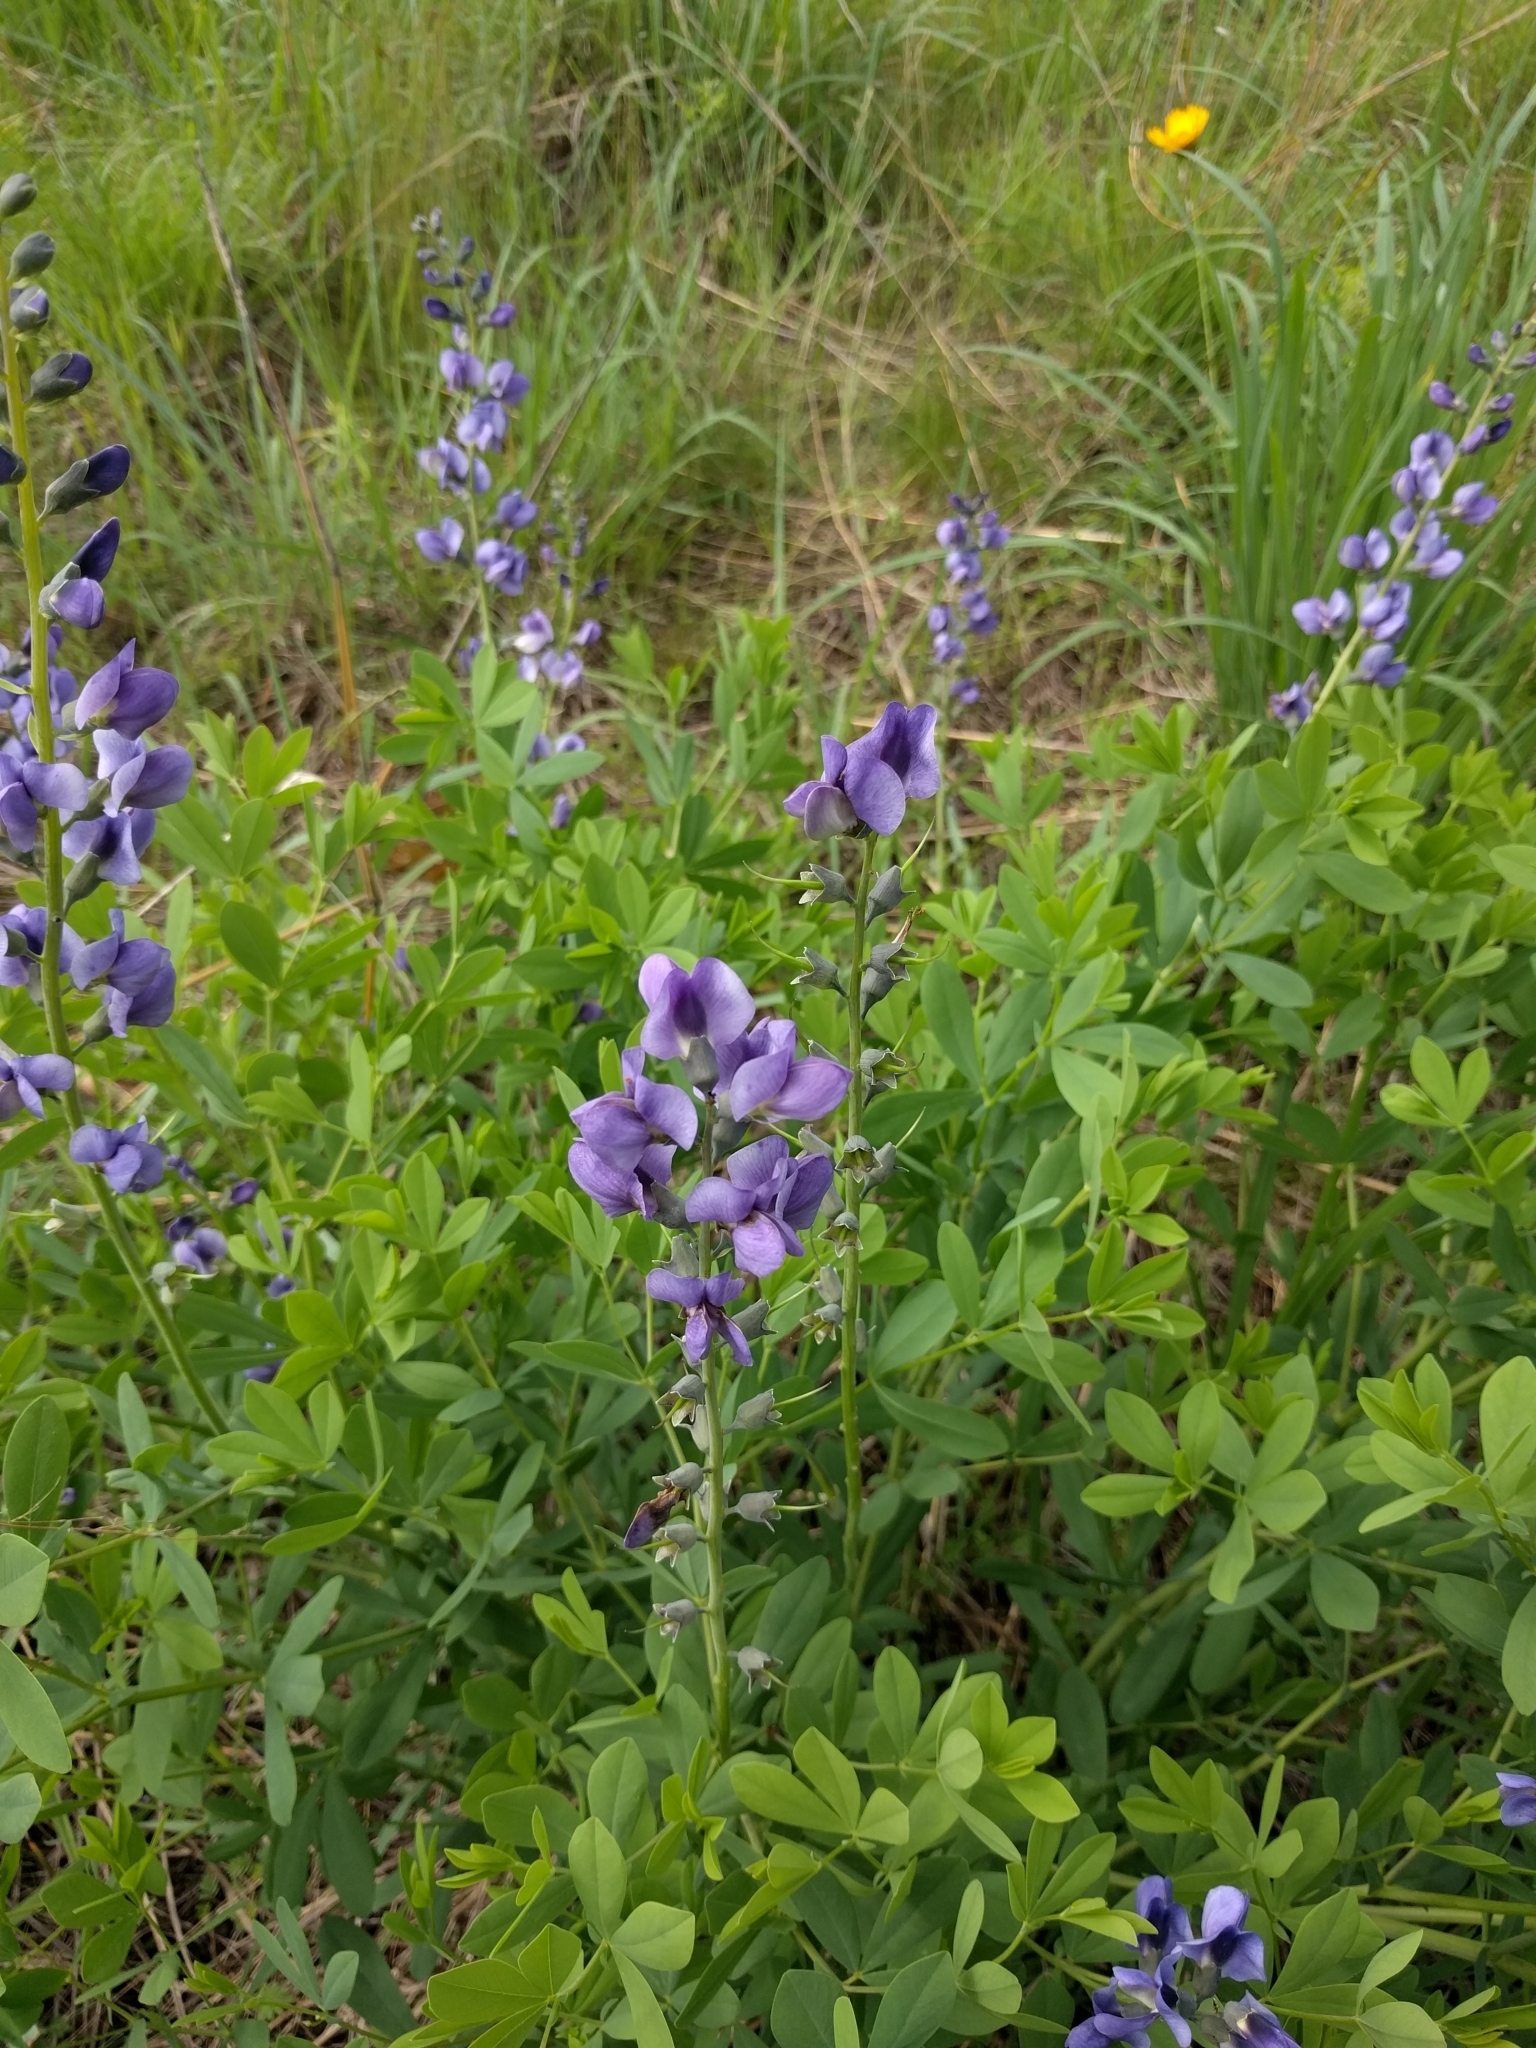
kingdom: Plantae
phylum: Tracheophyta
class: Magnoliopsida
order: Fabales
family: Fabaceae
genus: Baptisia
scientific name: Baptisia australis
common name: Blue false indigo
